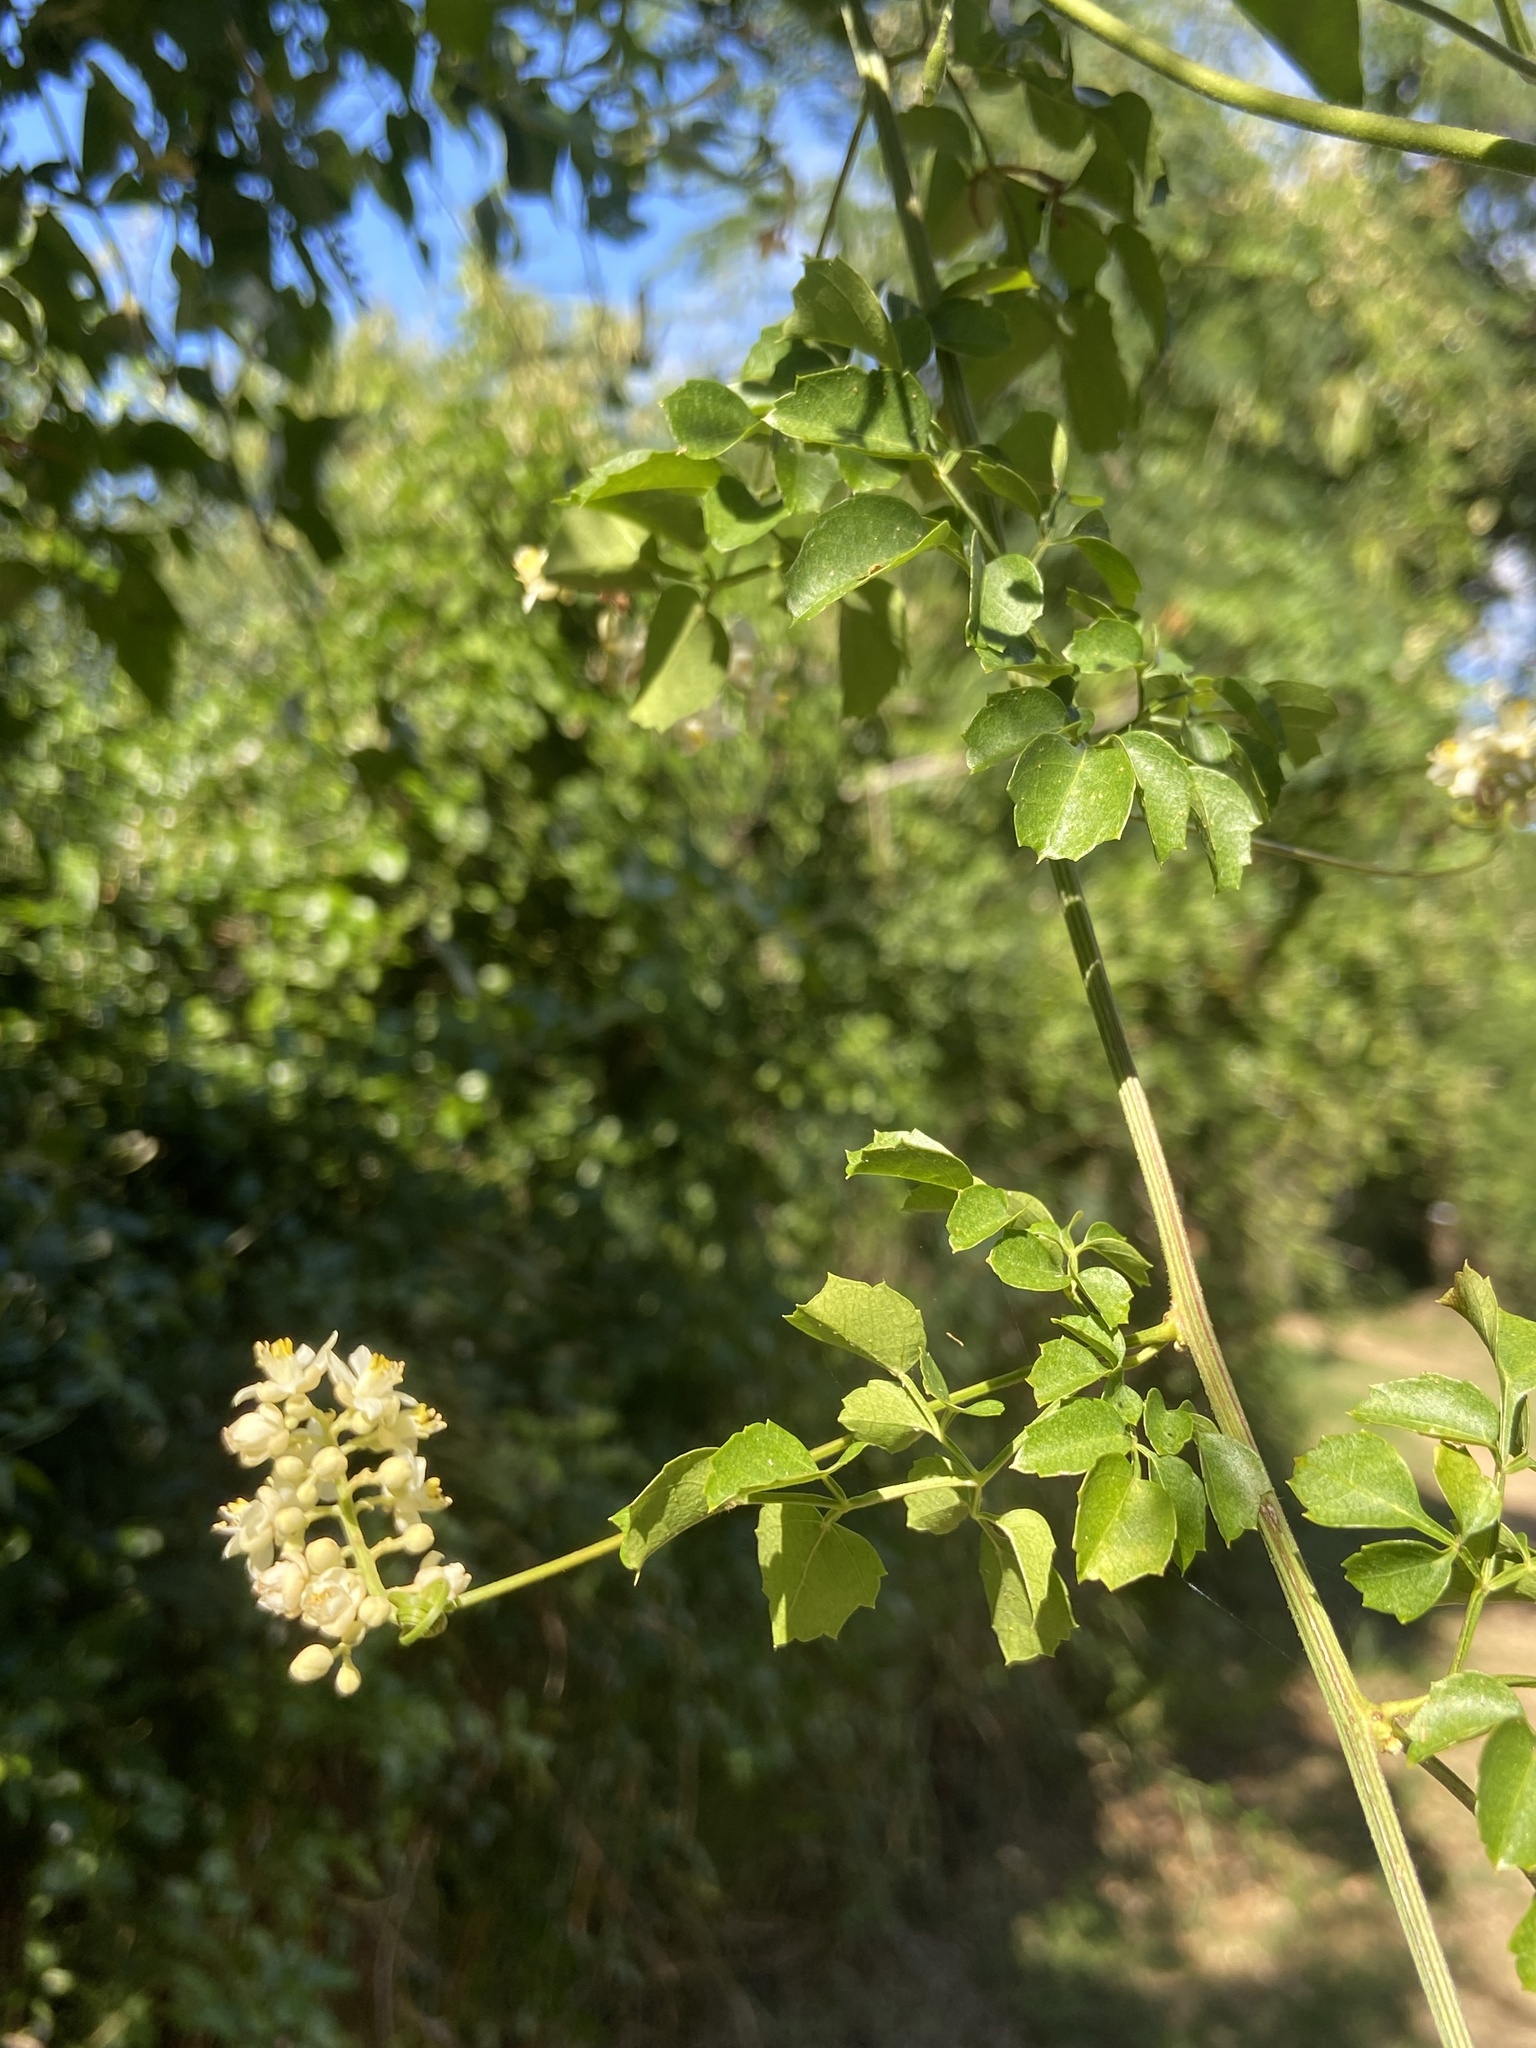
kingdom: Plantae
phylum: Tracheophyta
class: Magnoliopsida
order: Sapindales
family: Sapindaceae
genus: Serjania
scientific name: Serjania polyphylla
